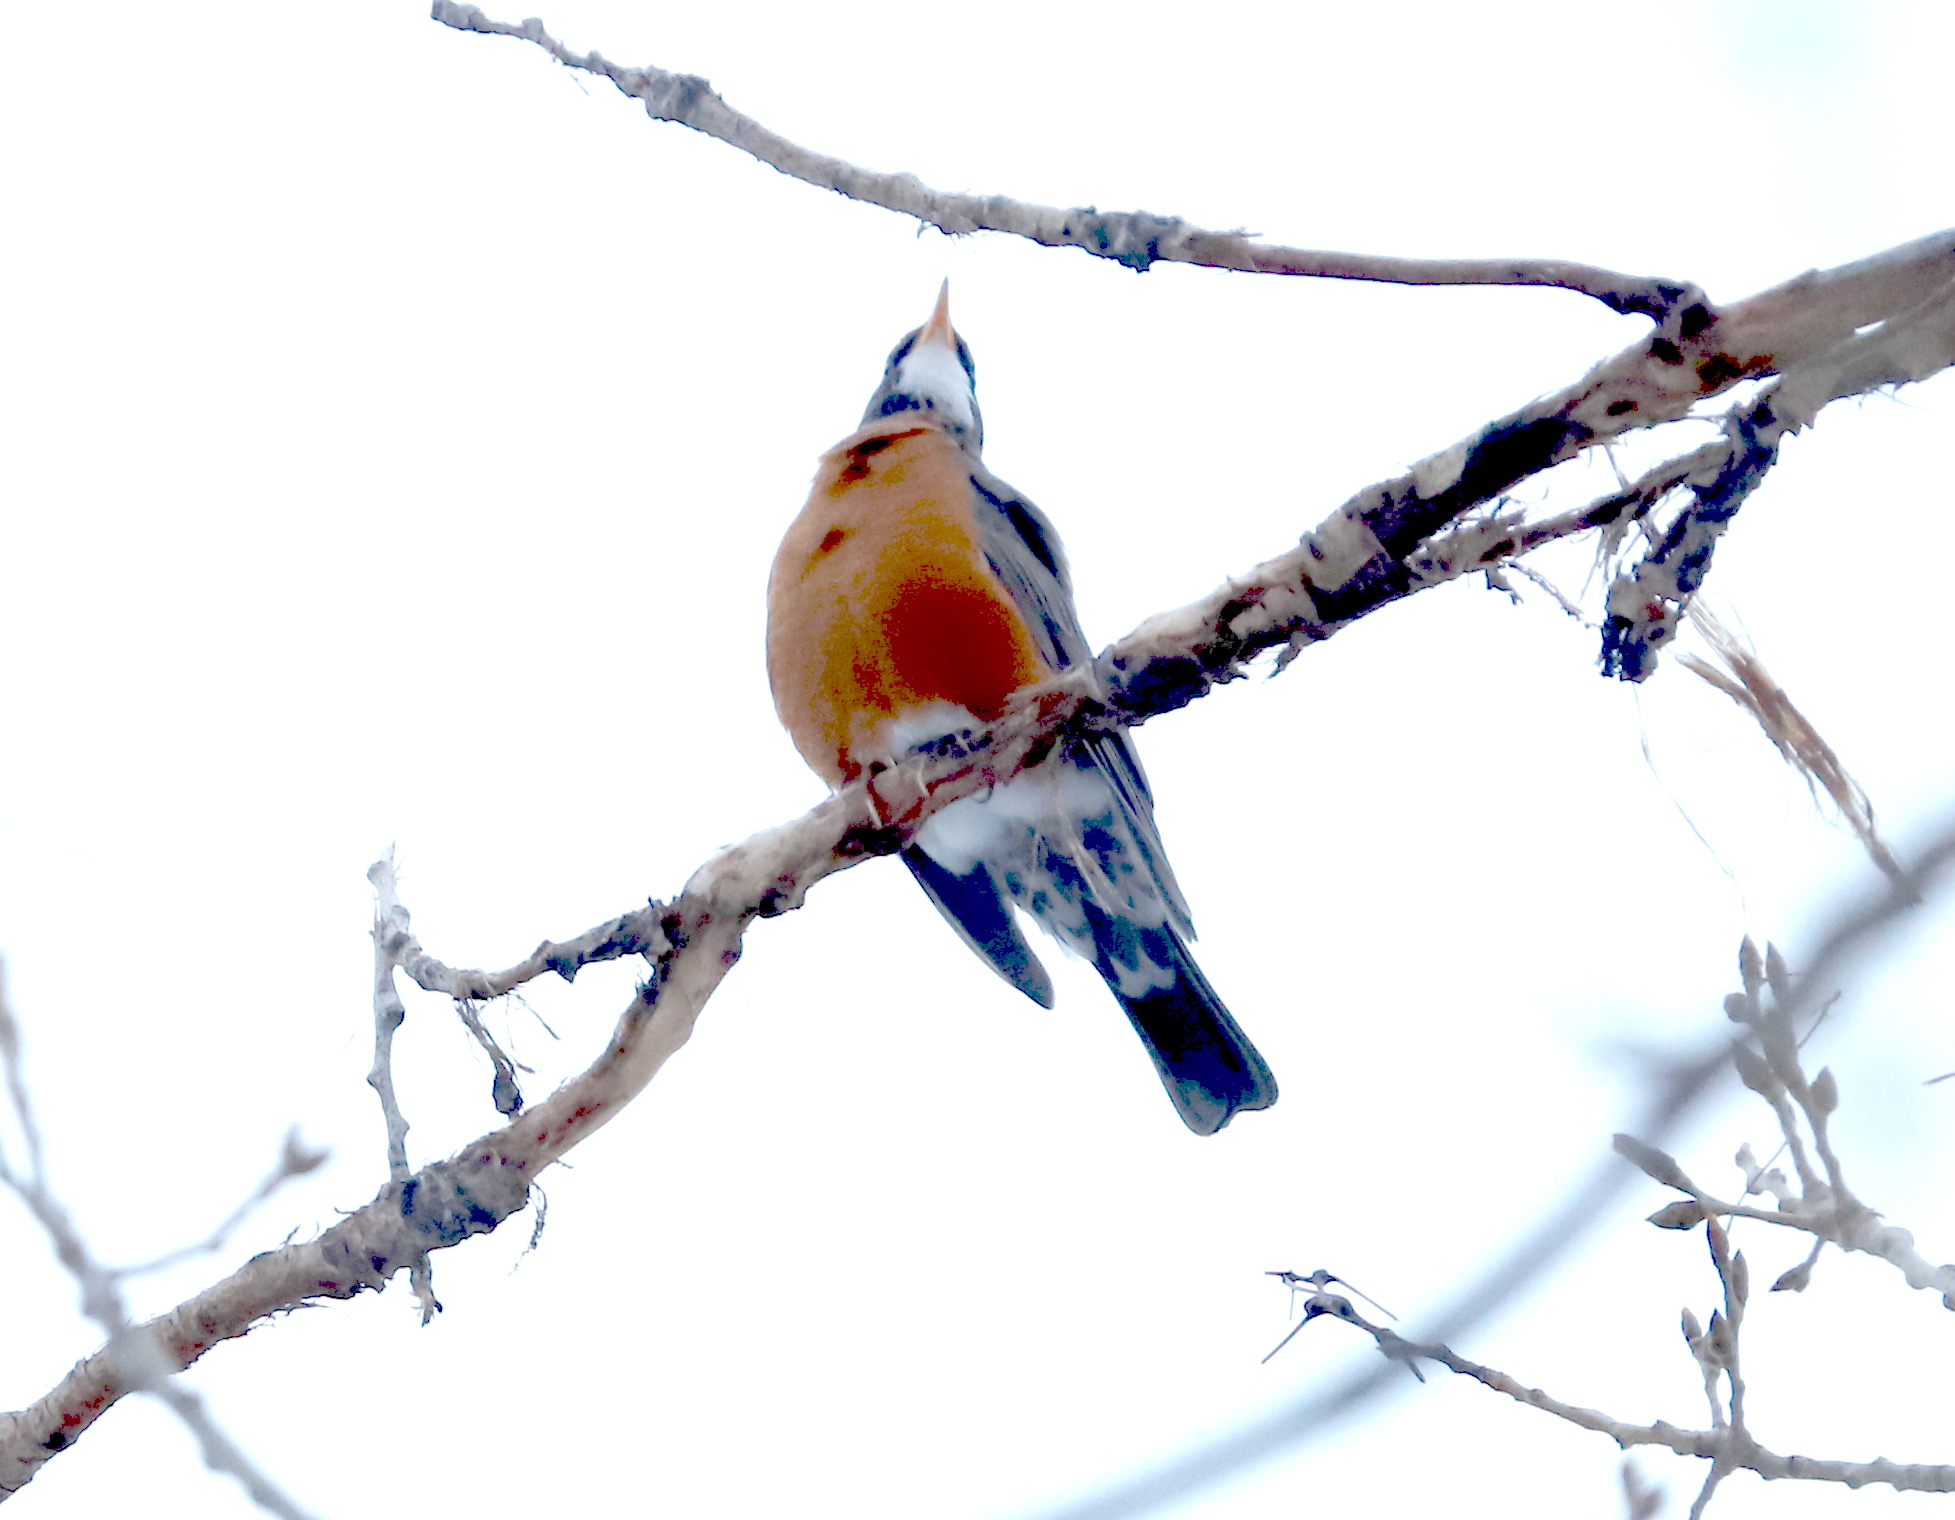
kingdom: Animalia
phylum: Chordata
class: Aves
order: Passeriformes
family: Turdidae
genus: Turdus
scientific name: Turdus migratorius
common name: American robin
